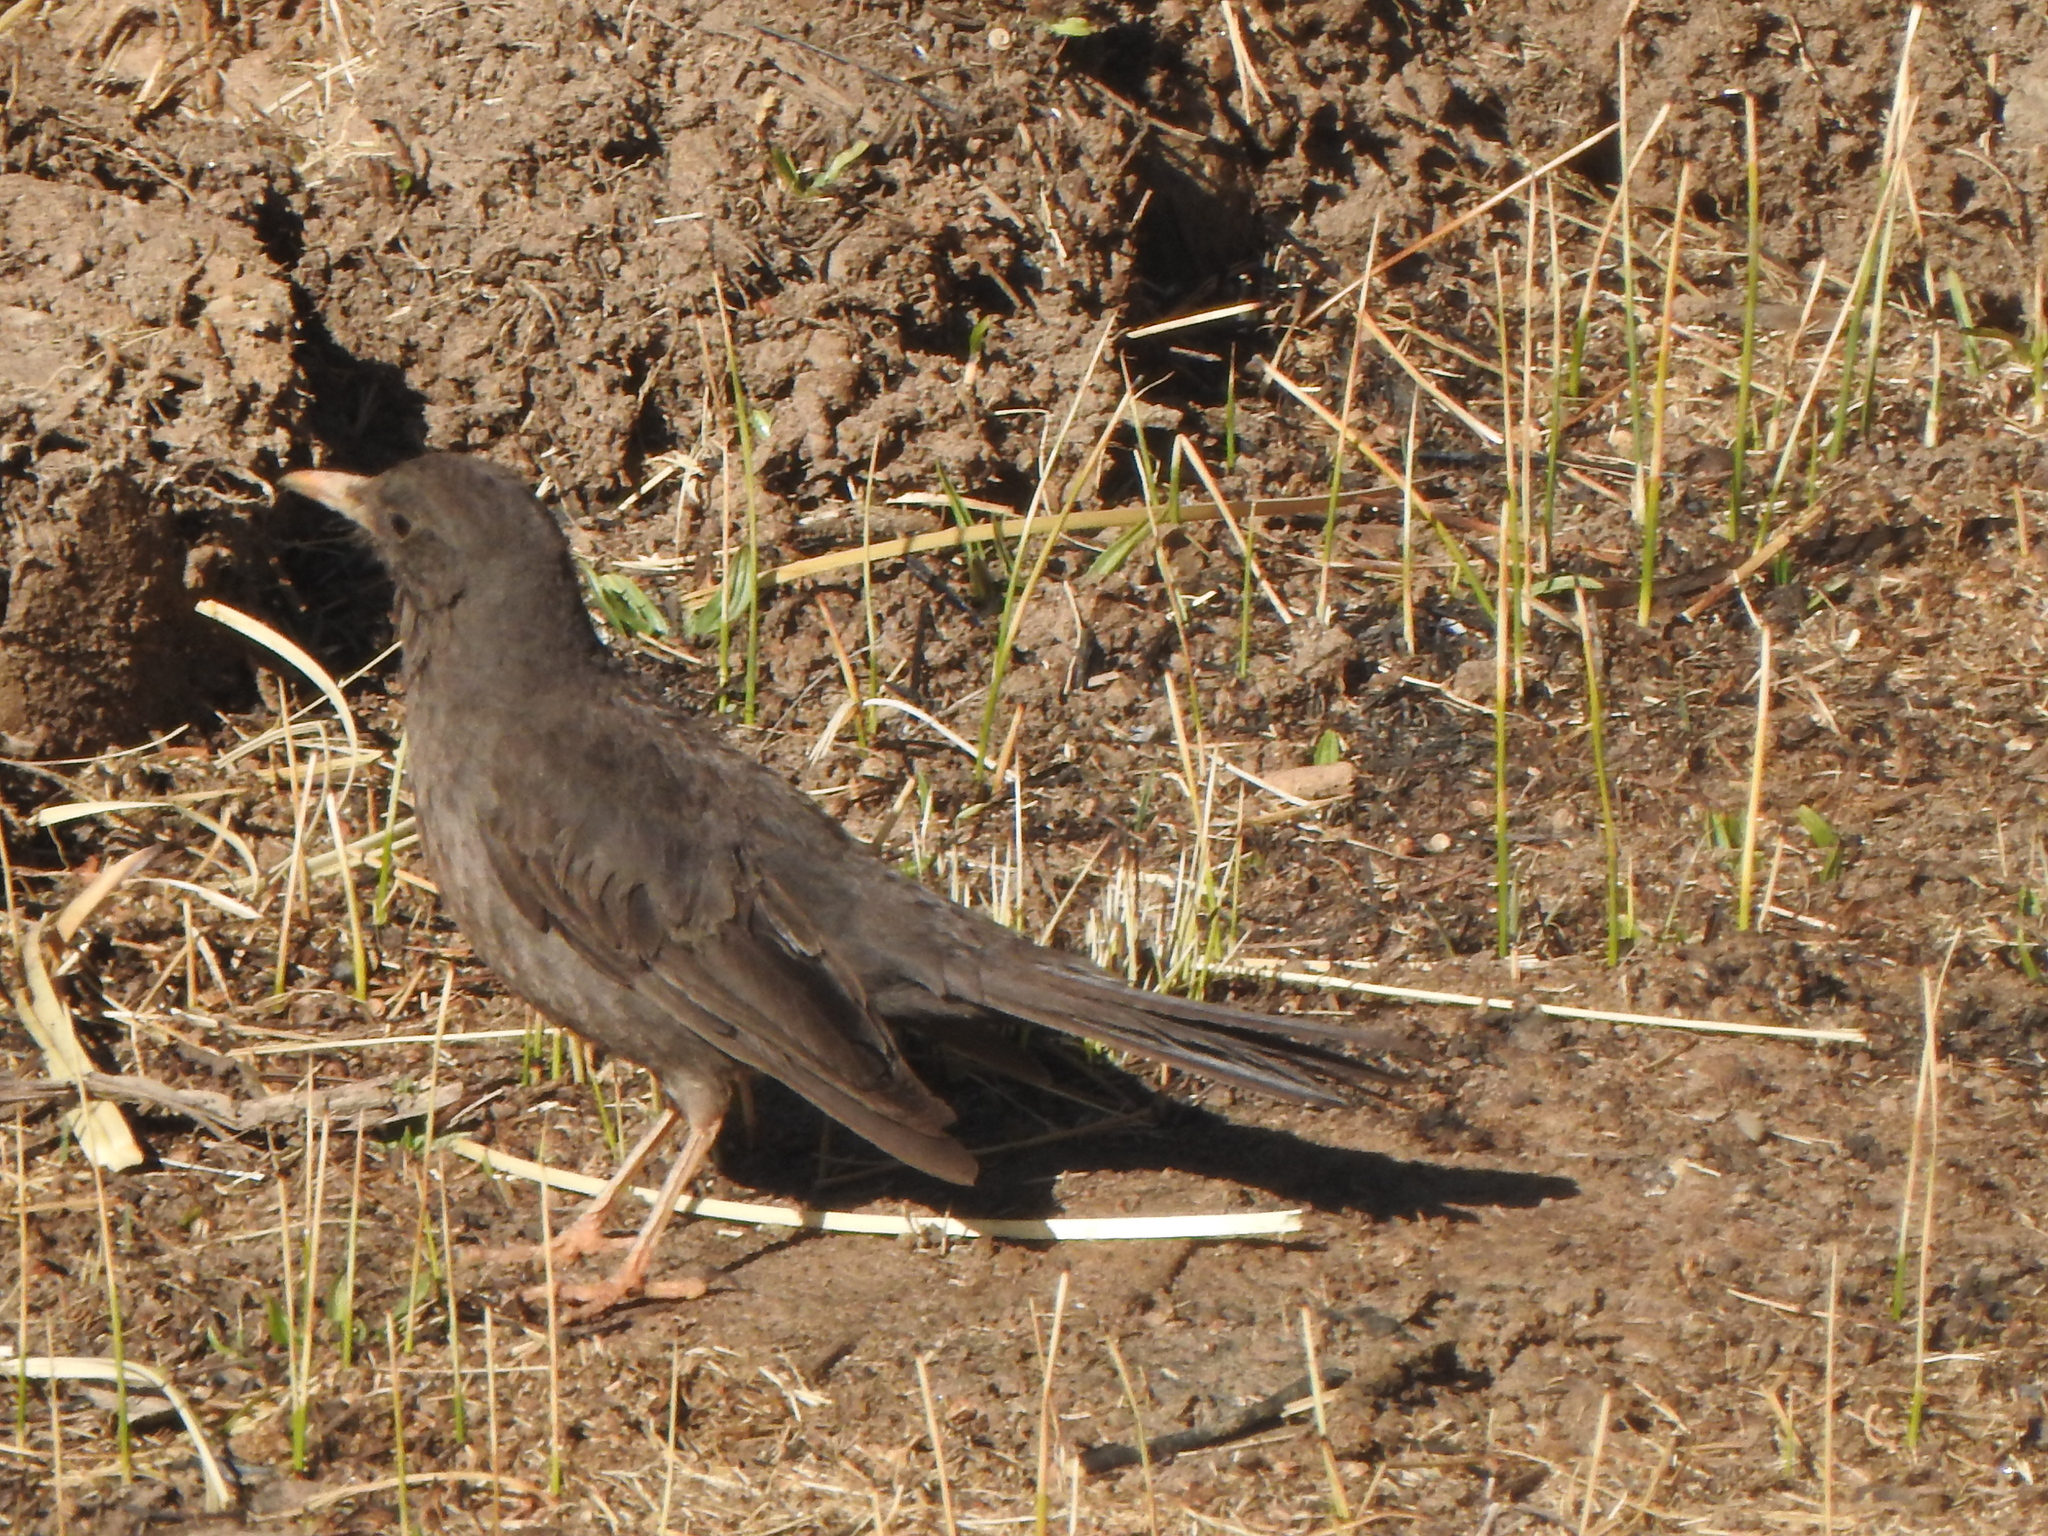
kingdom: Animalia
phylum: Chordata
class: Aves
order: Passeriformes
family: Turdidae
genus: Turdus
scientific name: Turdus chiguanco
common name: Chiguanco thrush
